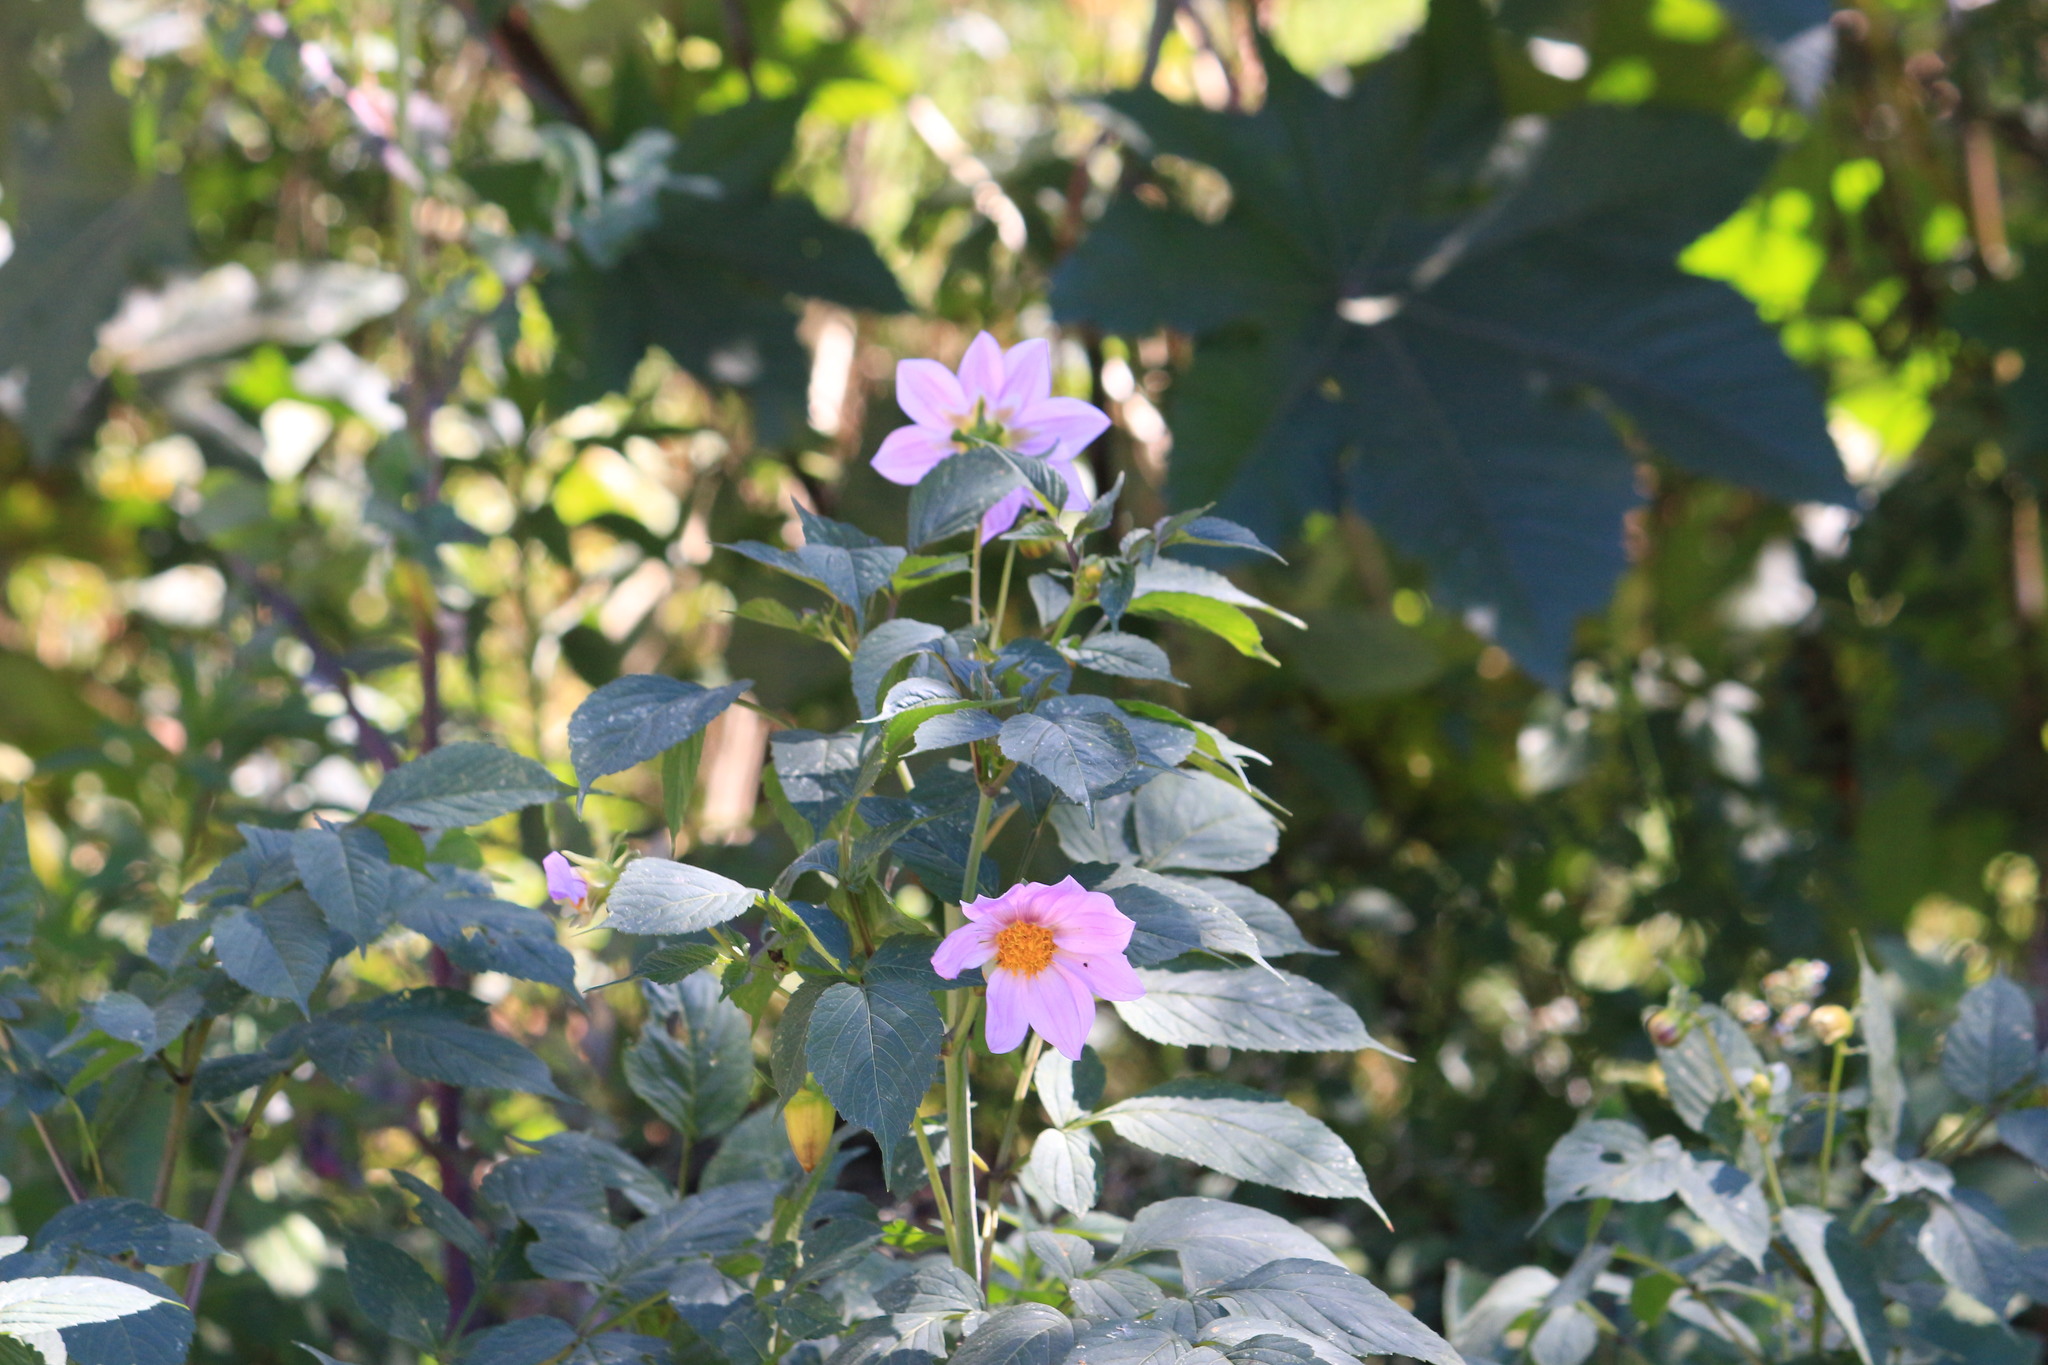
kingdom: Plantae
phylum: Tracheophyta
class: Magnoliopsida
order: Asterales
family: Asteraceae
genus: Dahlia
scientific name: Dahlia imperialis
